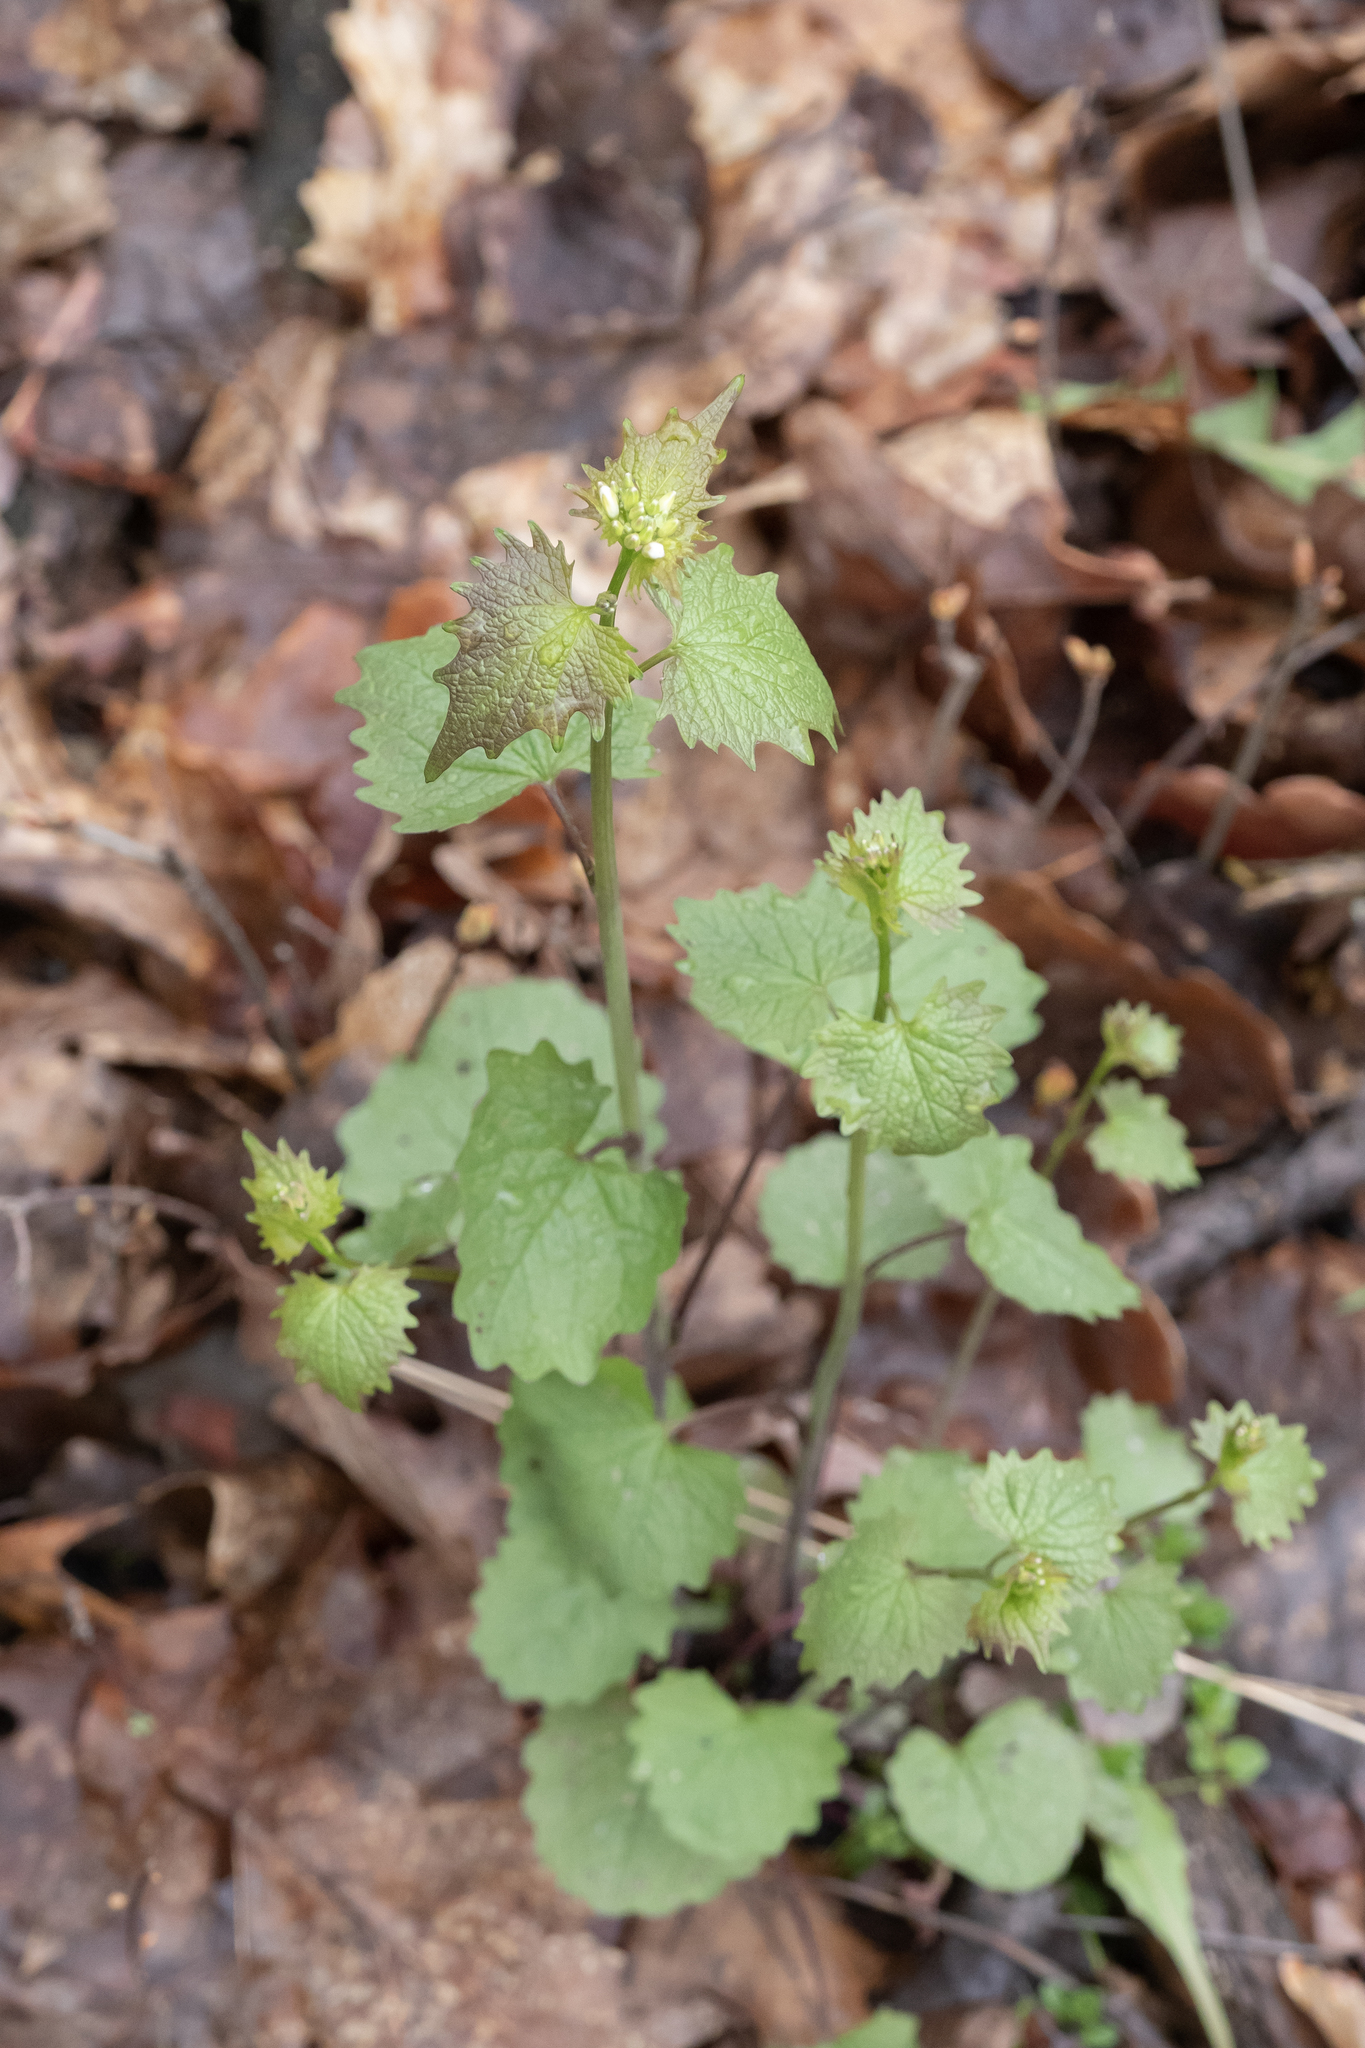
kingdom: Plantae
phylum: Tracheophyta
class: Magnoliopsida
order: Brassicales
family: Brassicaceae
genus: Alliaria
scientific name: Alliaria petiolata
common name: Garlic mustard
